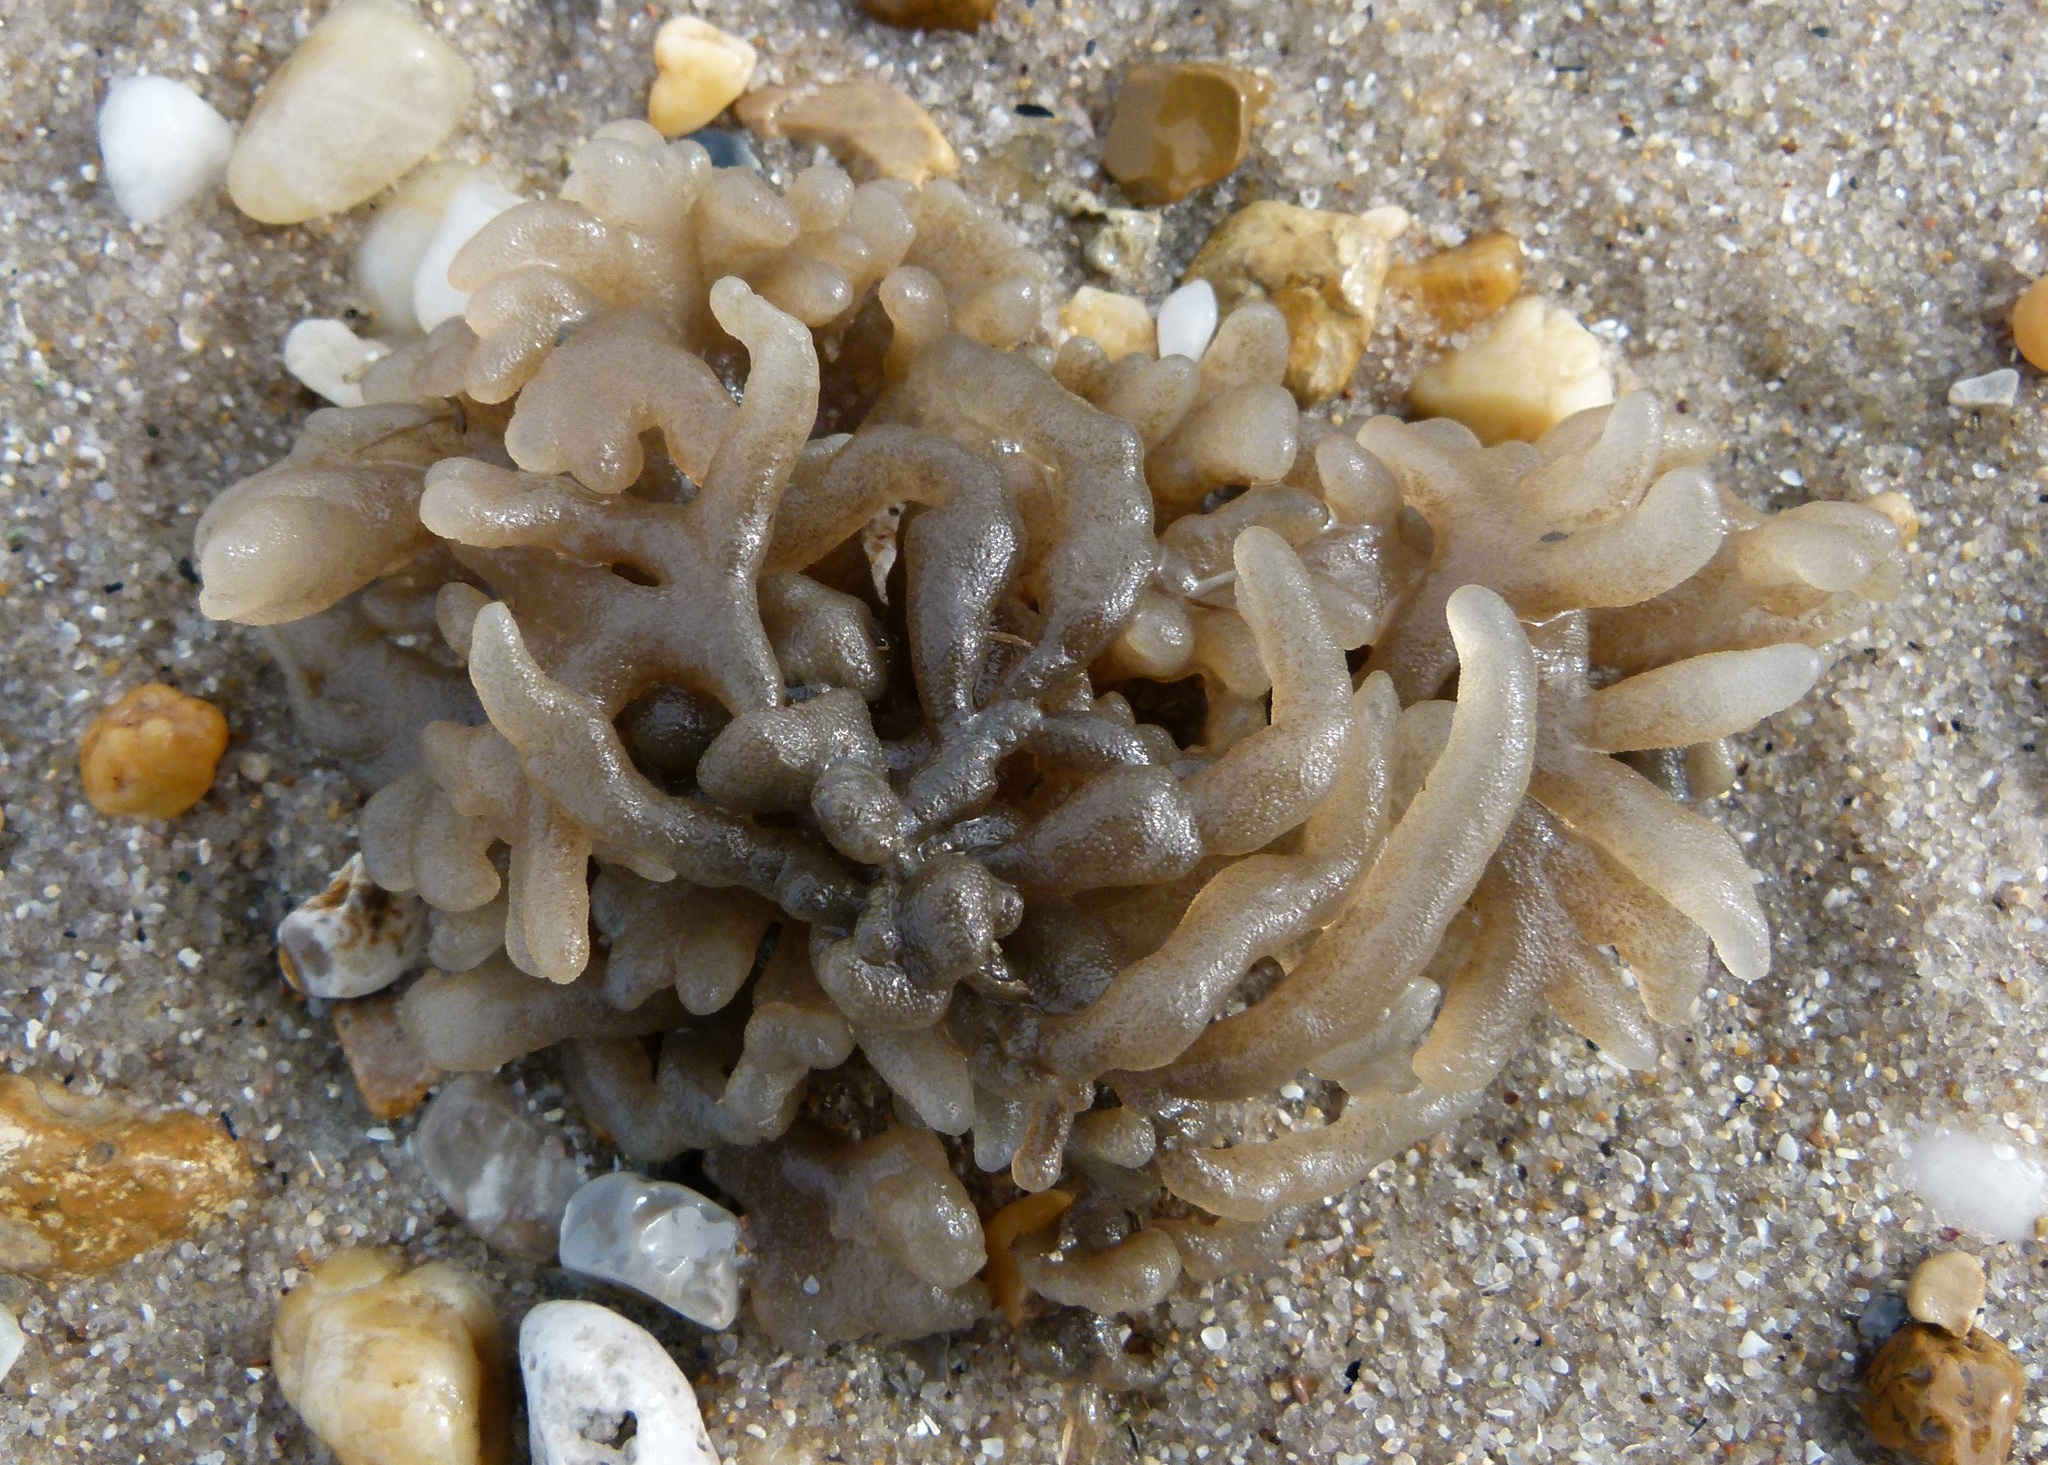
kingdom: Plantae
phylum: Chlorophyta
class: Ulvophyceae
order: Bryopsidales
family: Codiaceae
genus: Codium
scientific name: Codium fragile
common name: Dead man's fingers
